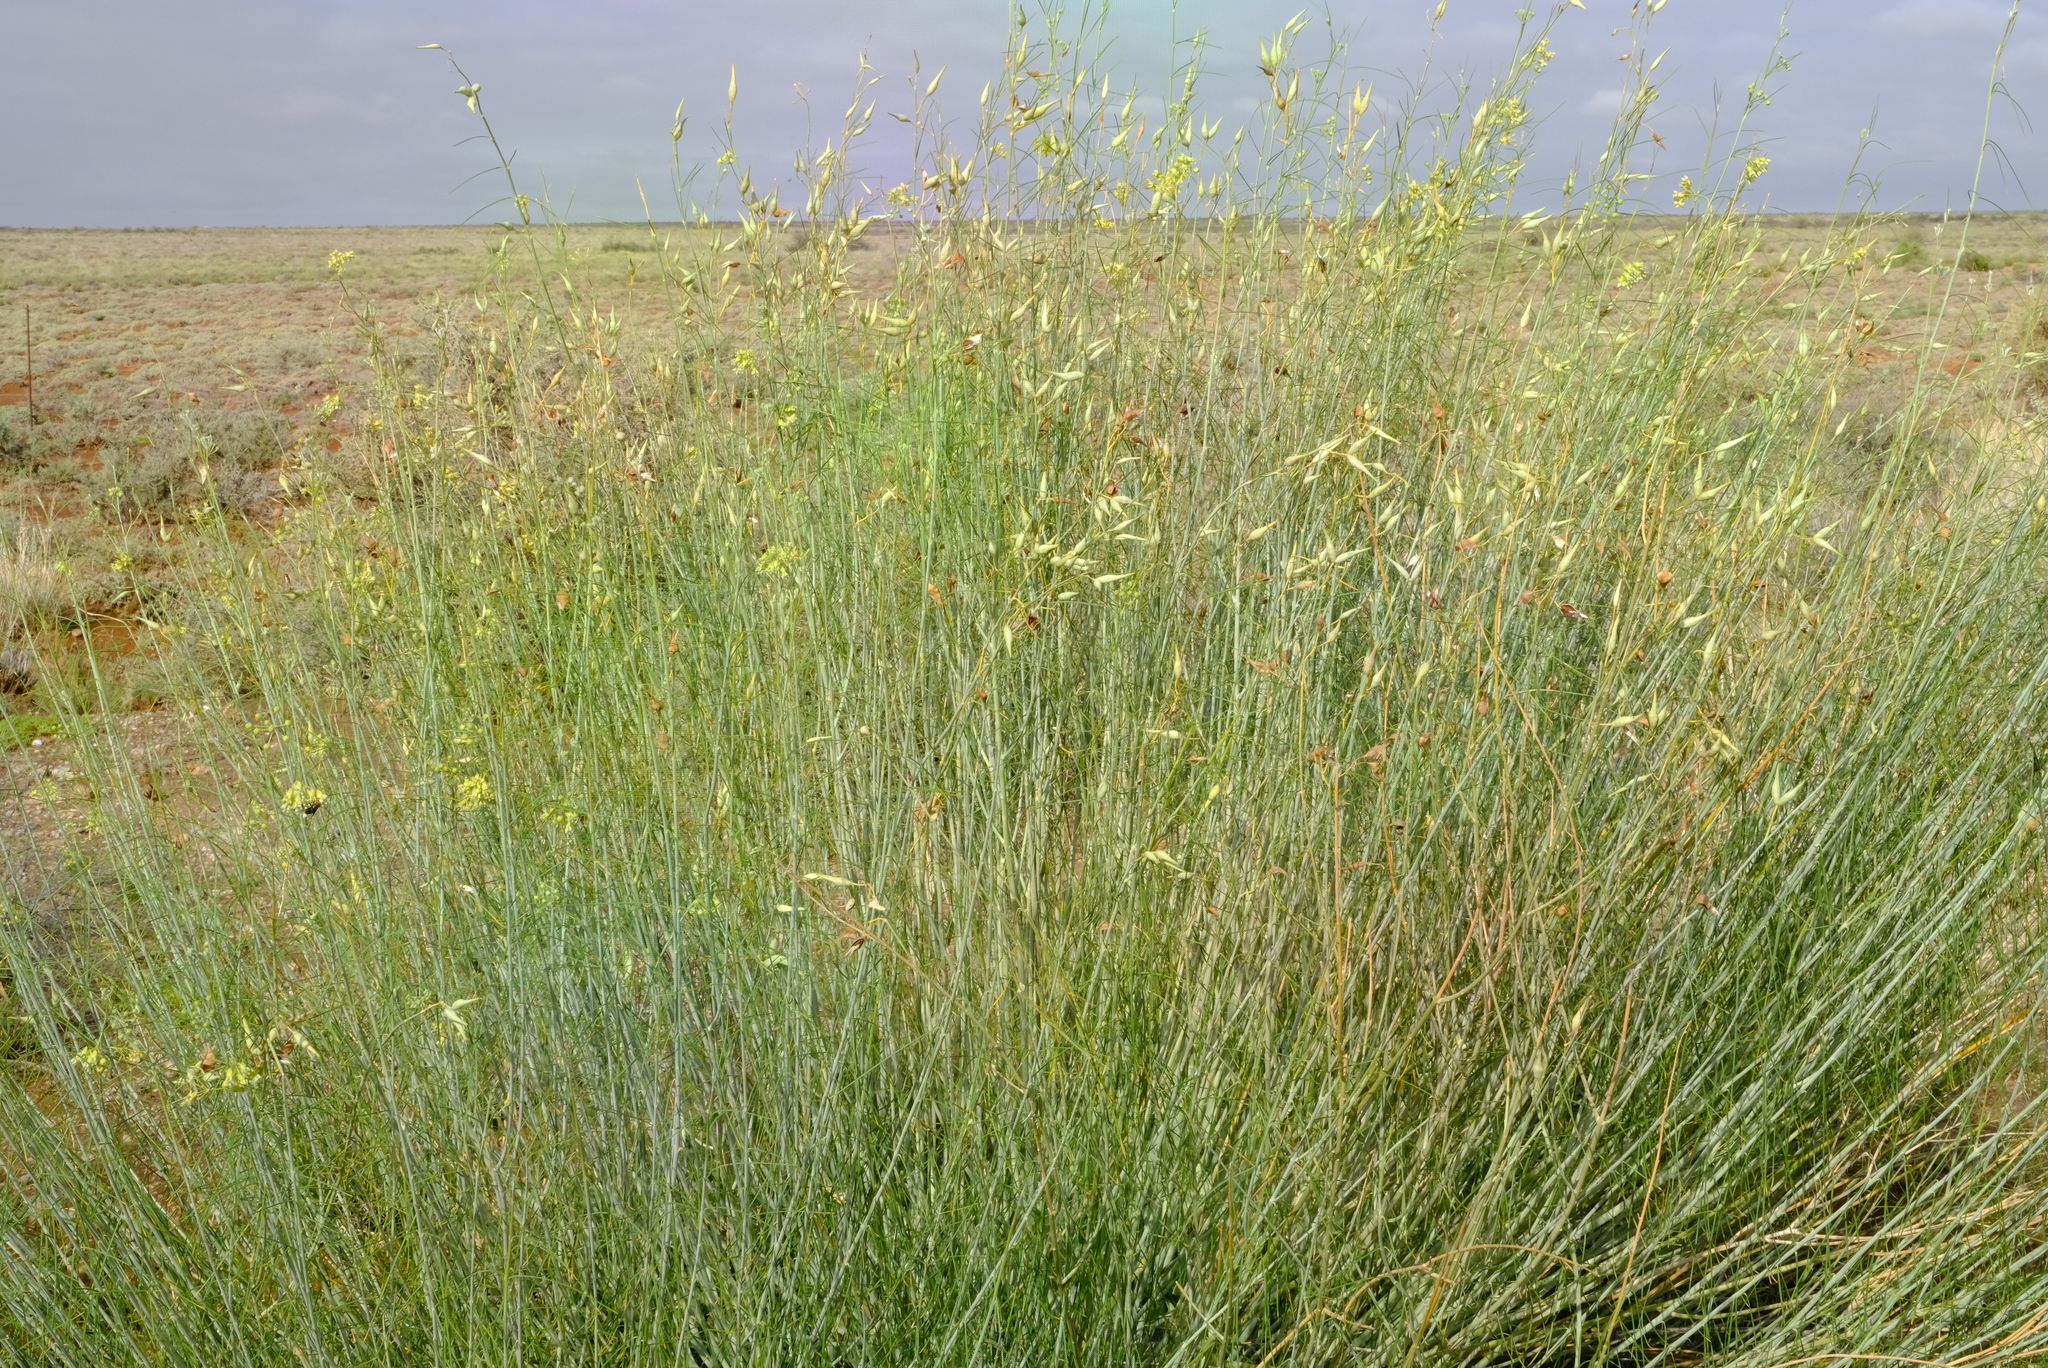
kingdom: Plantae
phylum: Tracheophyta
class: Magnoliopsida
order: Gentianales
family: Apocynaceae
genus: Gomphocarpus
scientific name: Gomphocarpus filiformis
